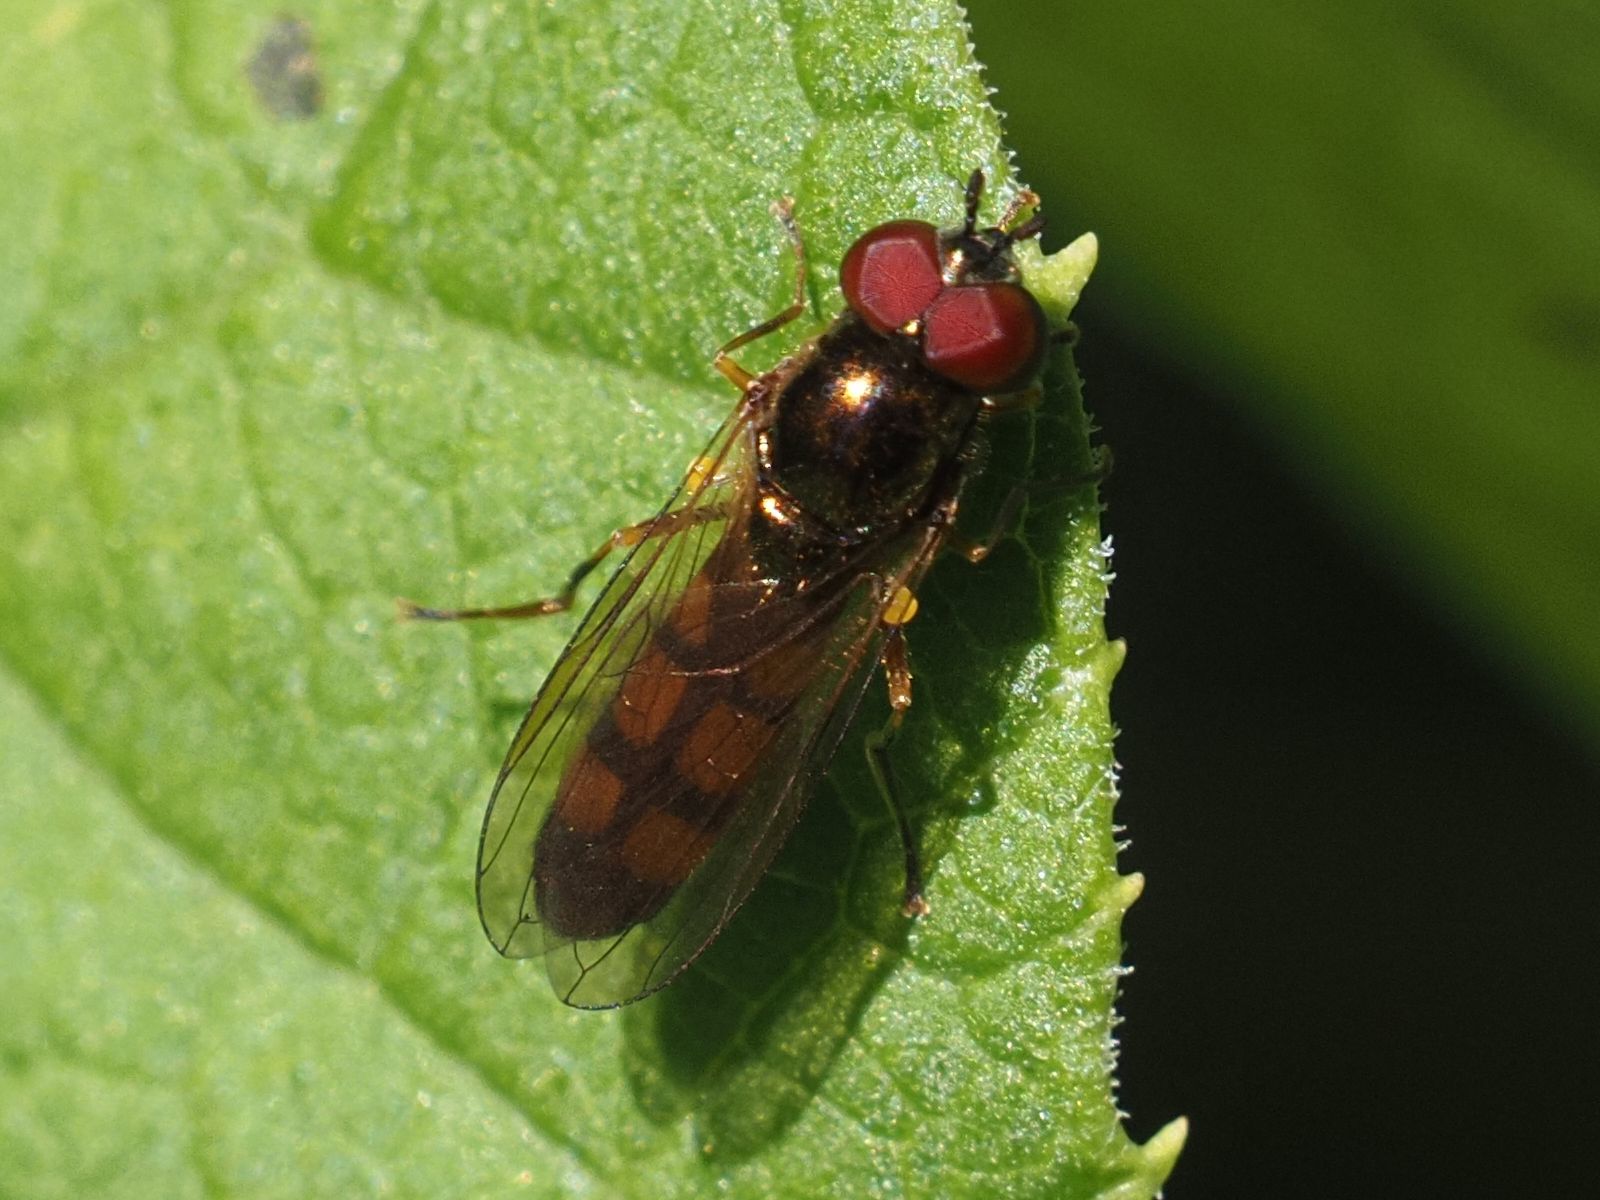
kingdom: Animalia
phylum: Arthropoda
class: Insecta
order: Diptera
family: Syrphidae
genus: Melanostoma
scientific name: Melanostoma mellina
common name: Hover fly
